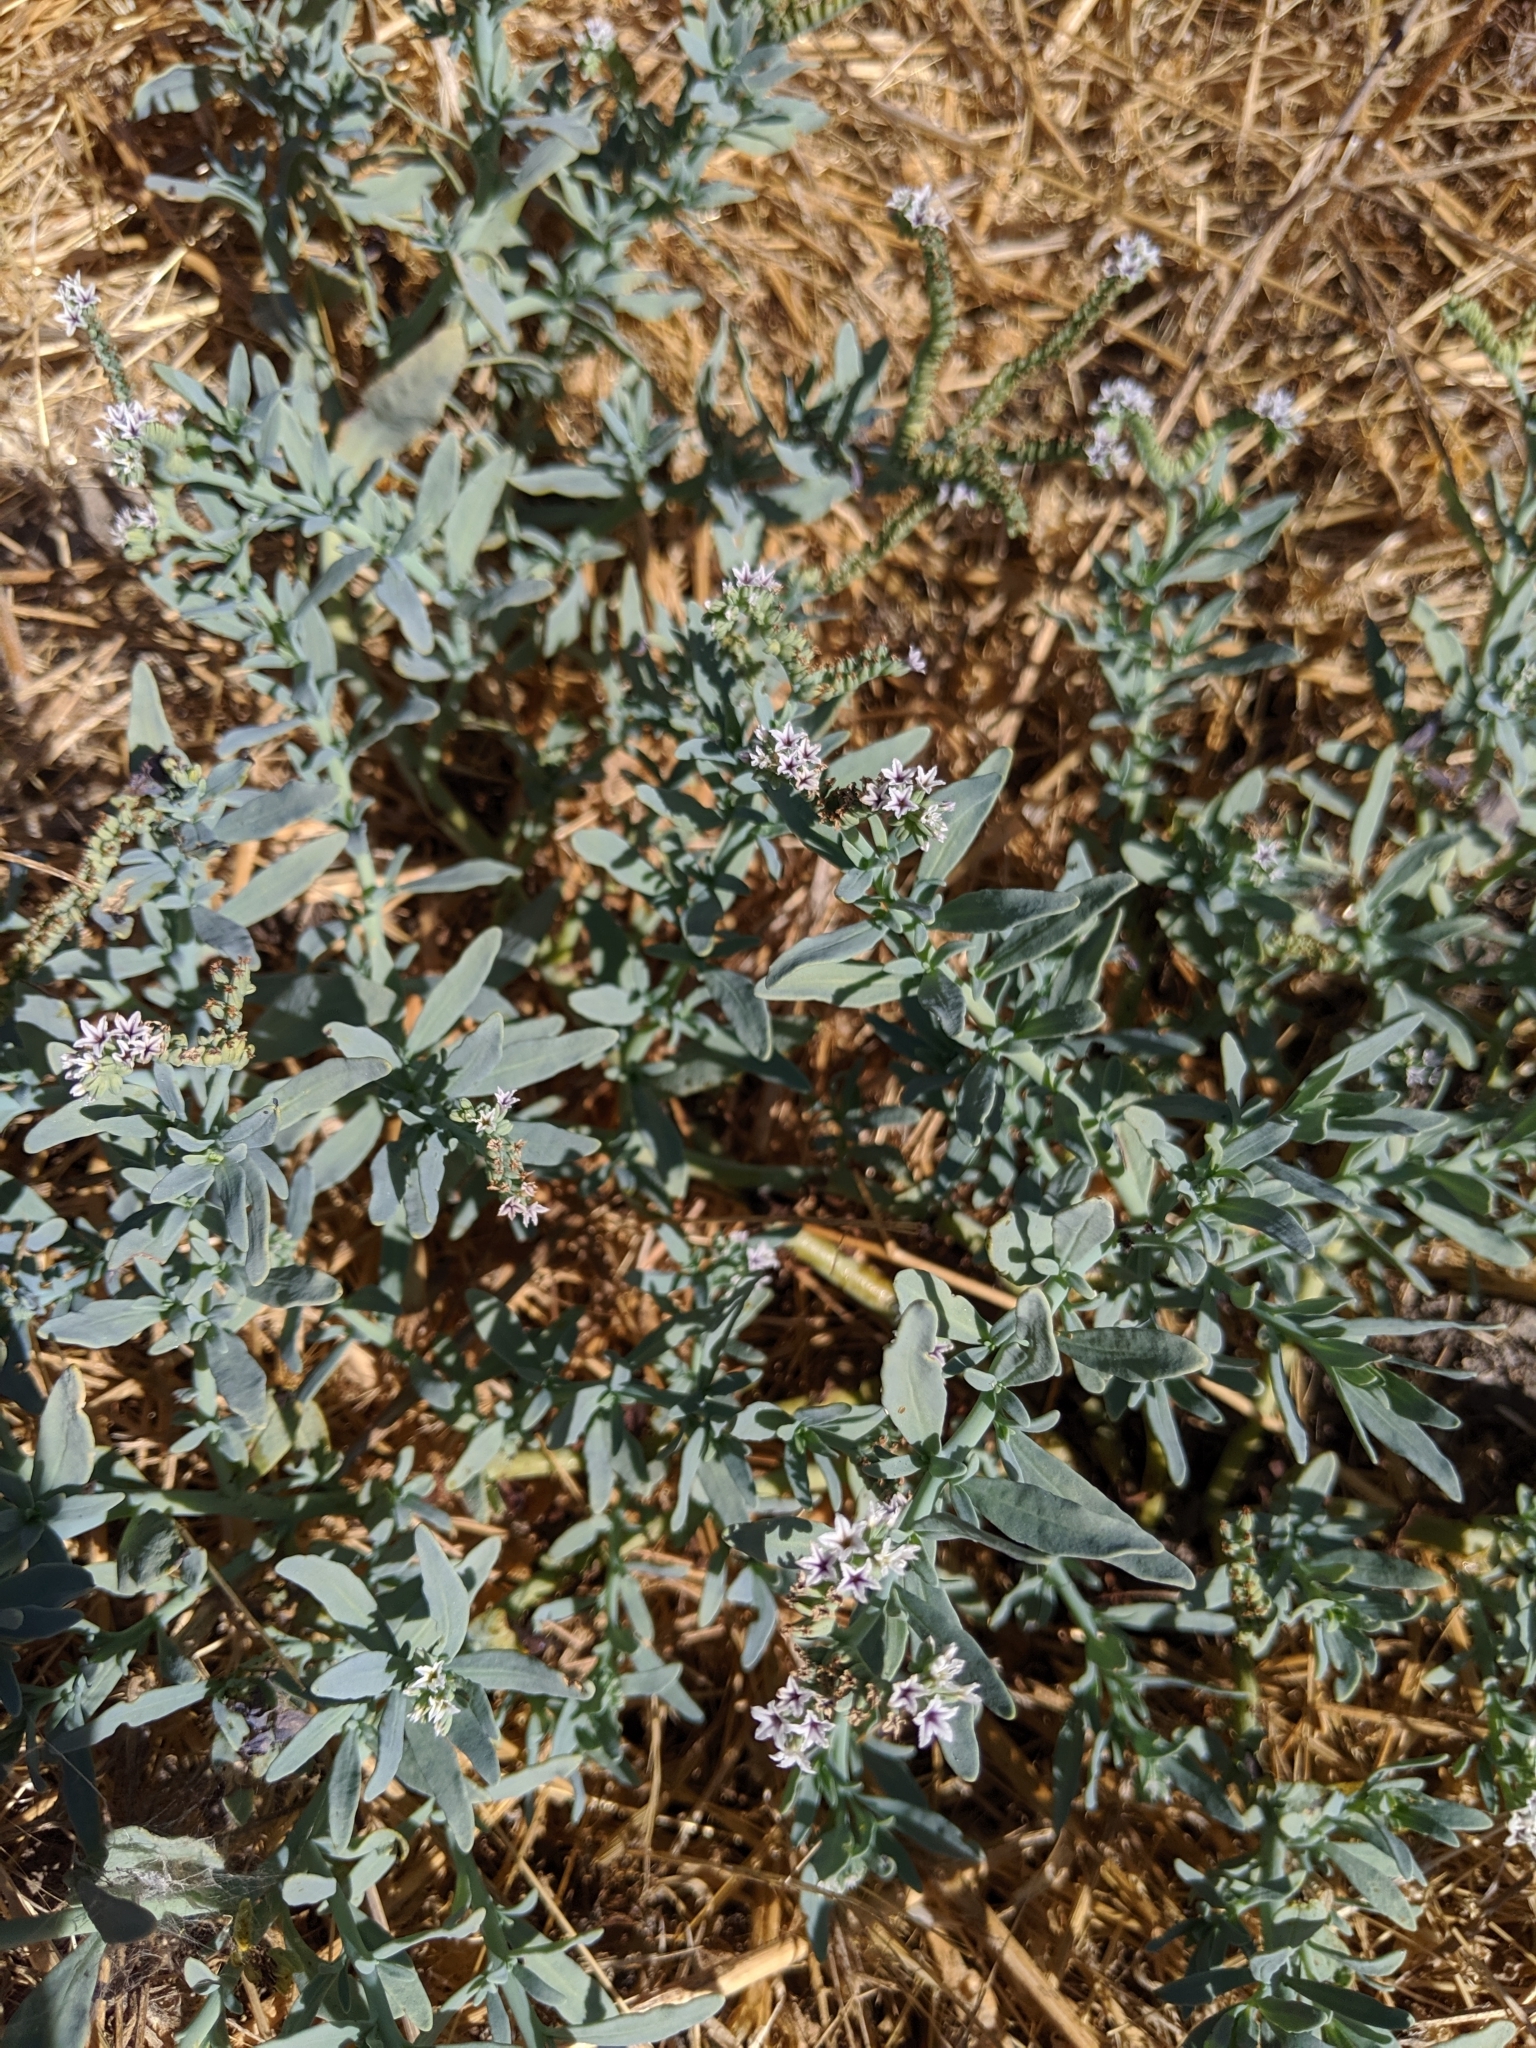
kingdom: Plantae
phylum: Tracheophyta
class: Magnoliopsida
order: Boraginales
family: Heliotropiaceae
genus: Heliotropium
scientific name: Heliotropium curassavicum
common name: Seaside heliotrope
